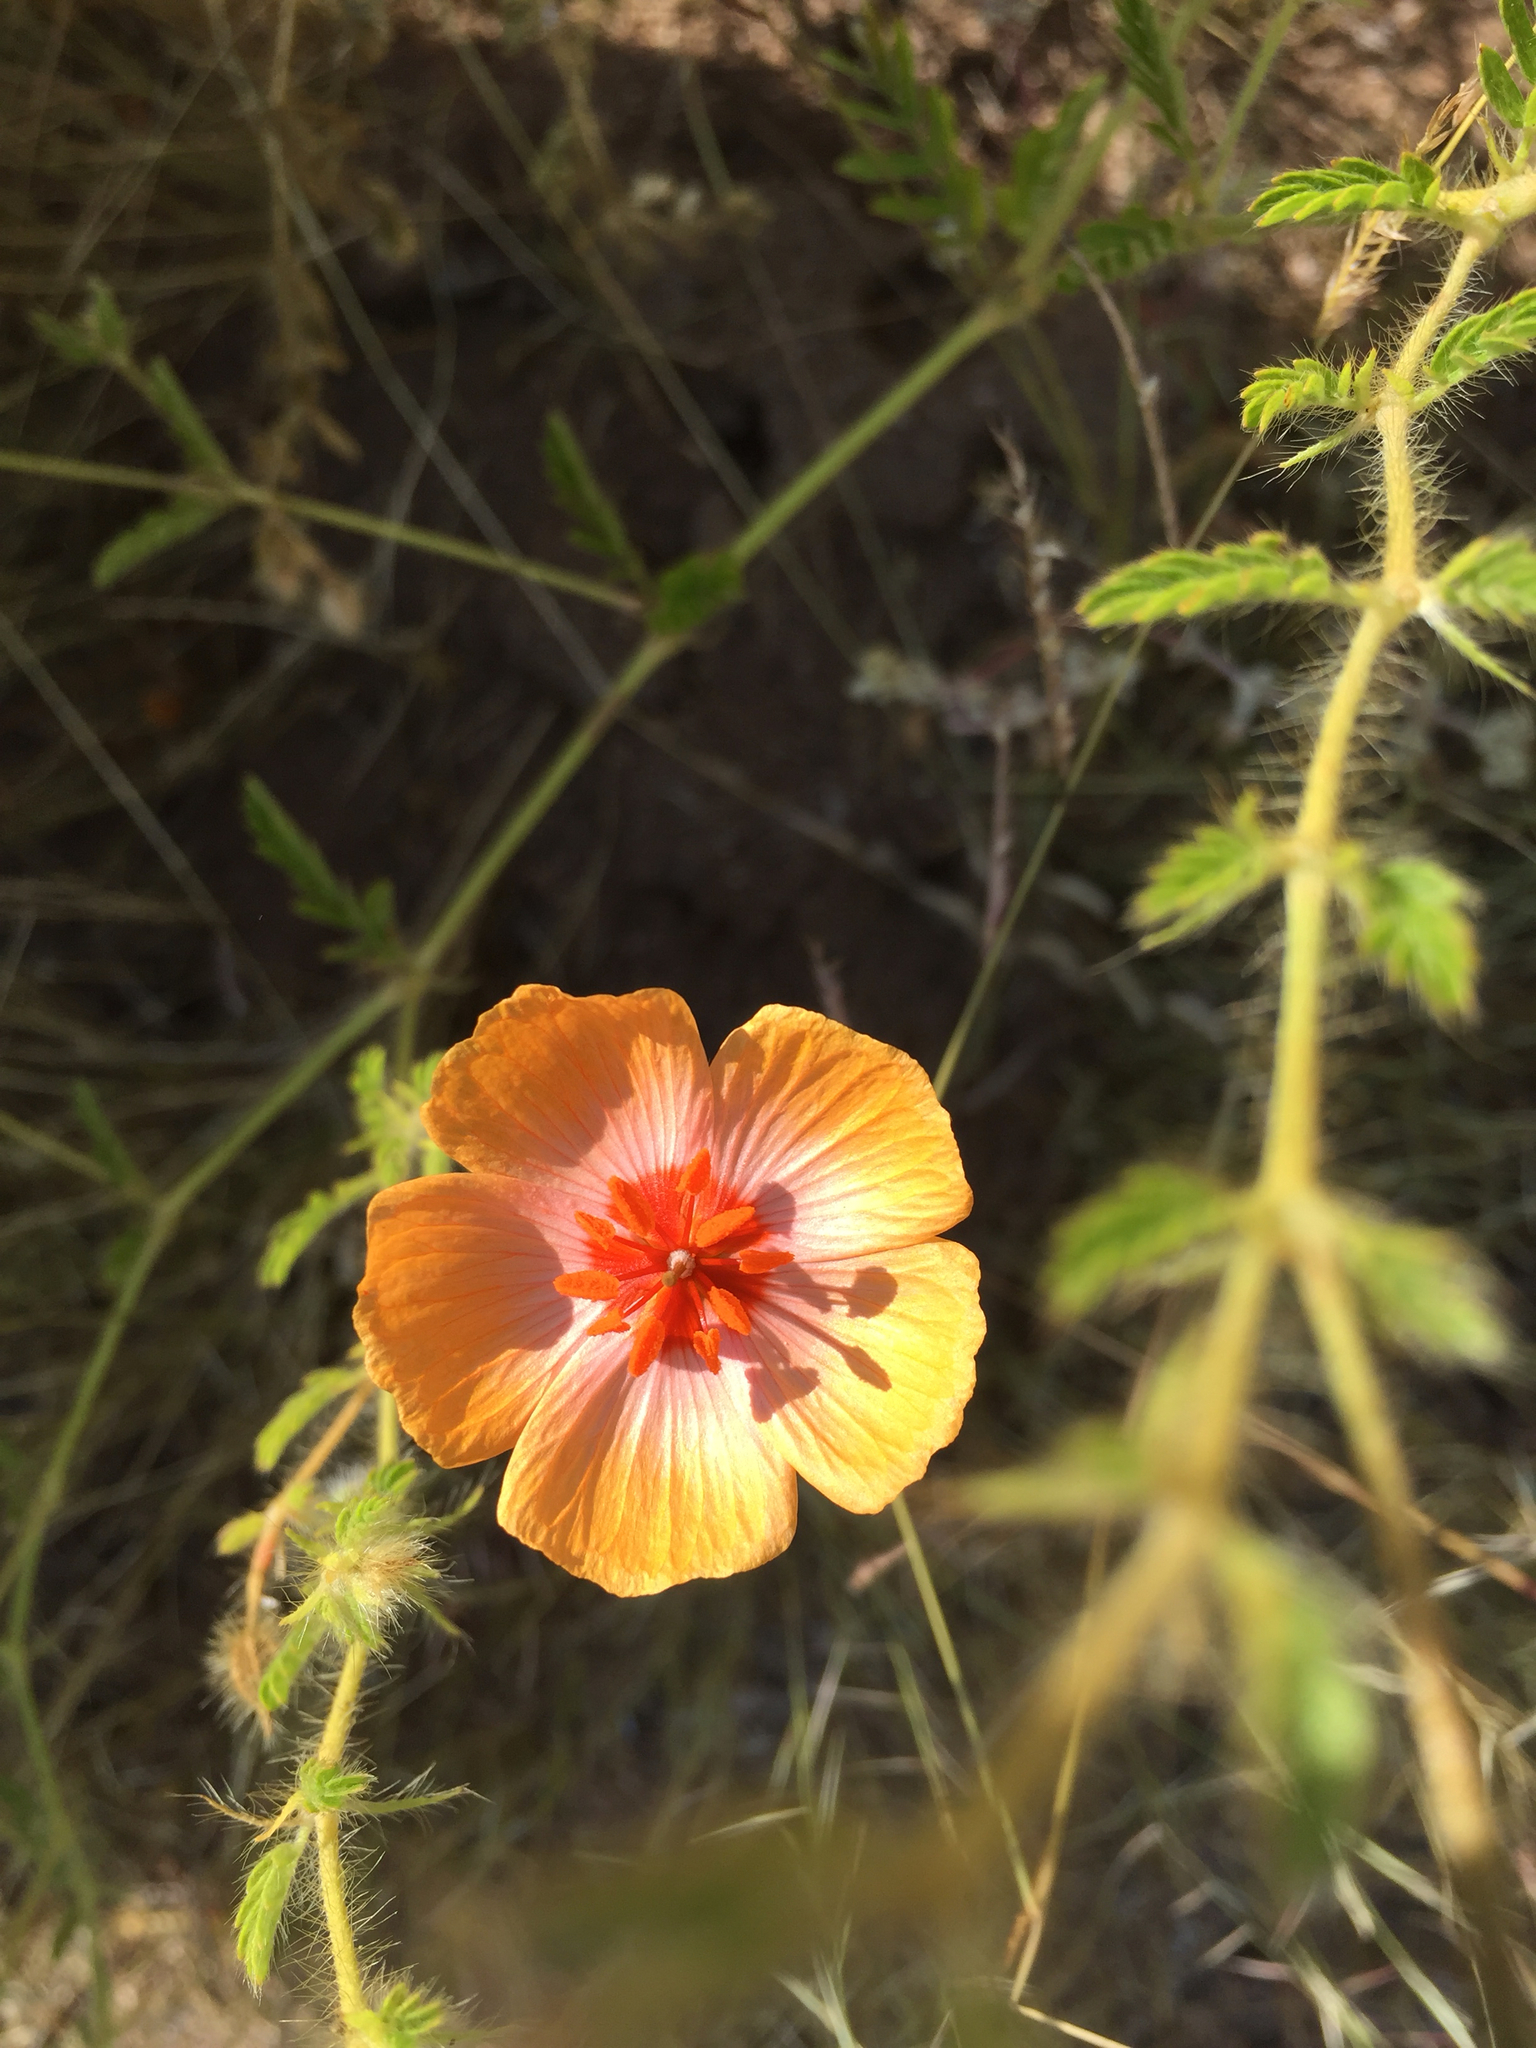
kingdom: Plantae
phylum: Tracheophyta
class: Magnoliopsida
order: Zygophyllales
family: Zygophyllaceae
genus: Kallstroemia
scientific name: Kallstroemia grandiflora
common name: Arizona-poppy
